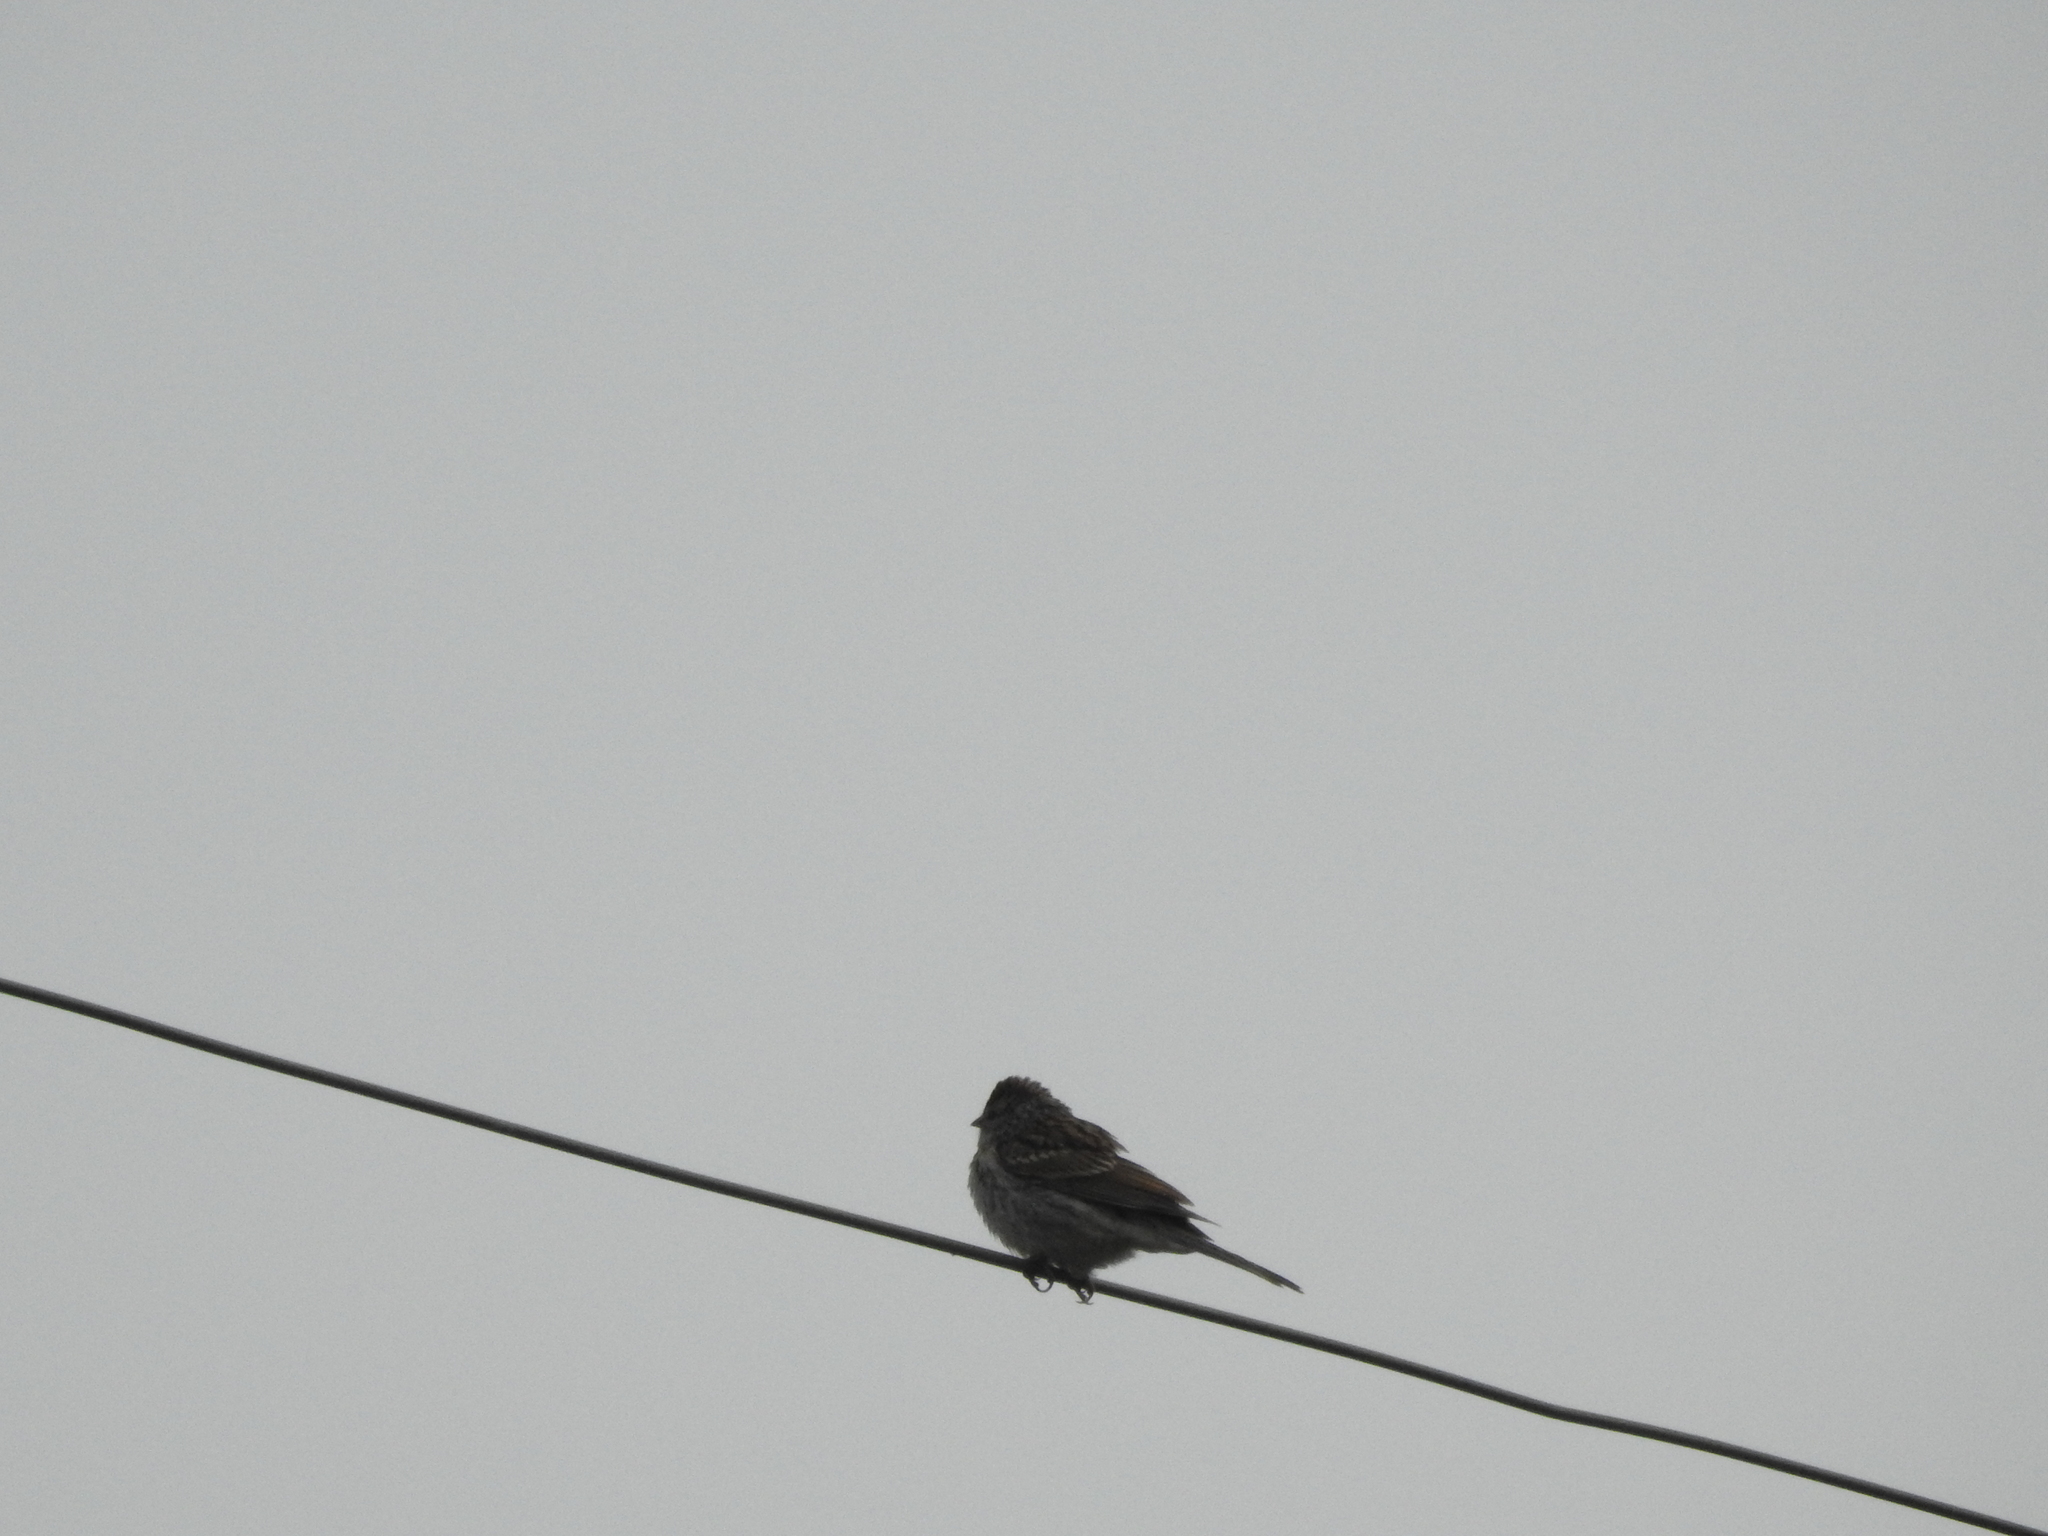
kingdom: Animalia
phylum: Chordata
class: Aves
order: Passeriformes
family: Passerellidae
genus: Spizella
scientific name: Spizella passerina
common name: Chipping sparrow
